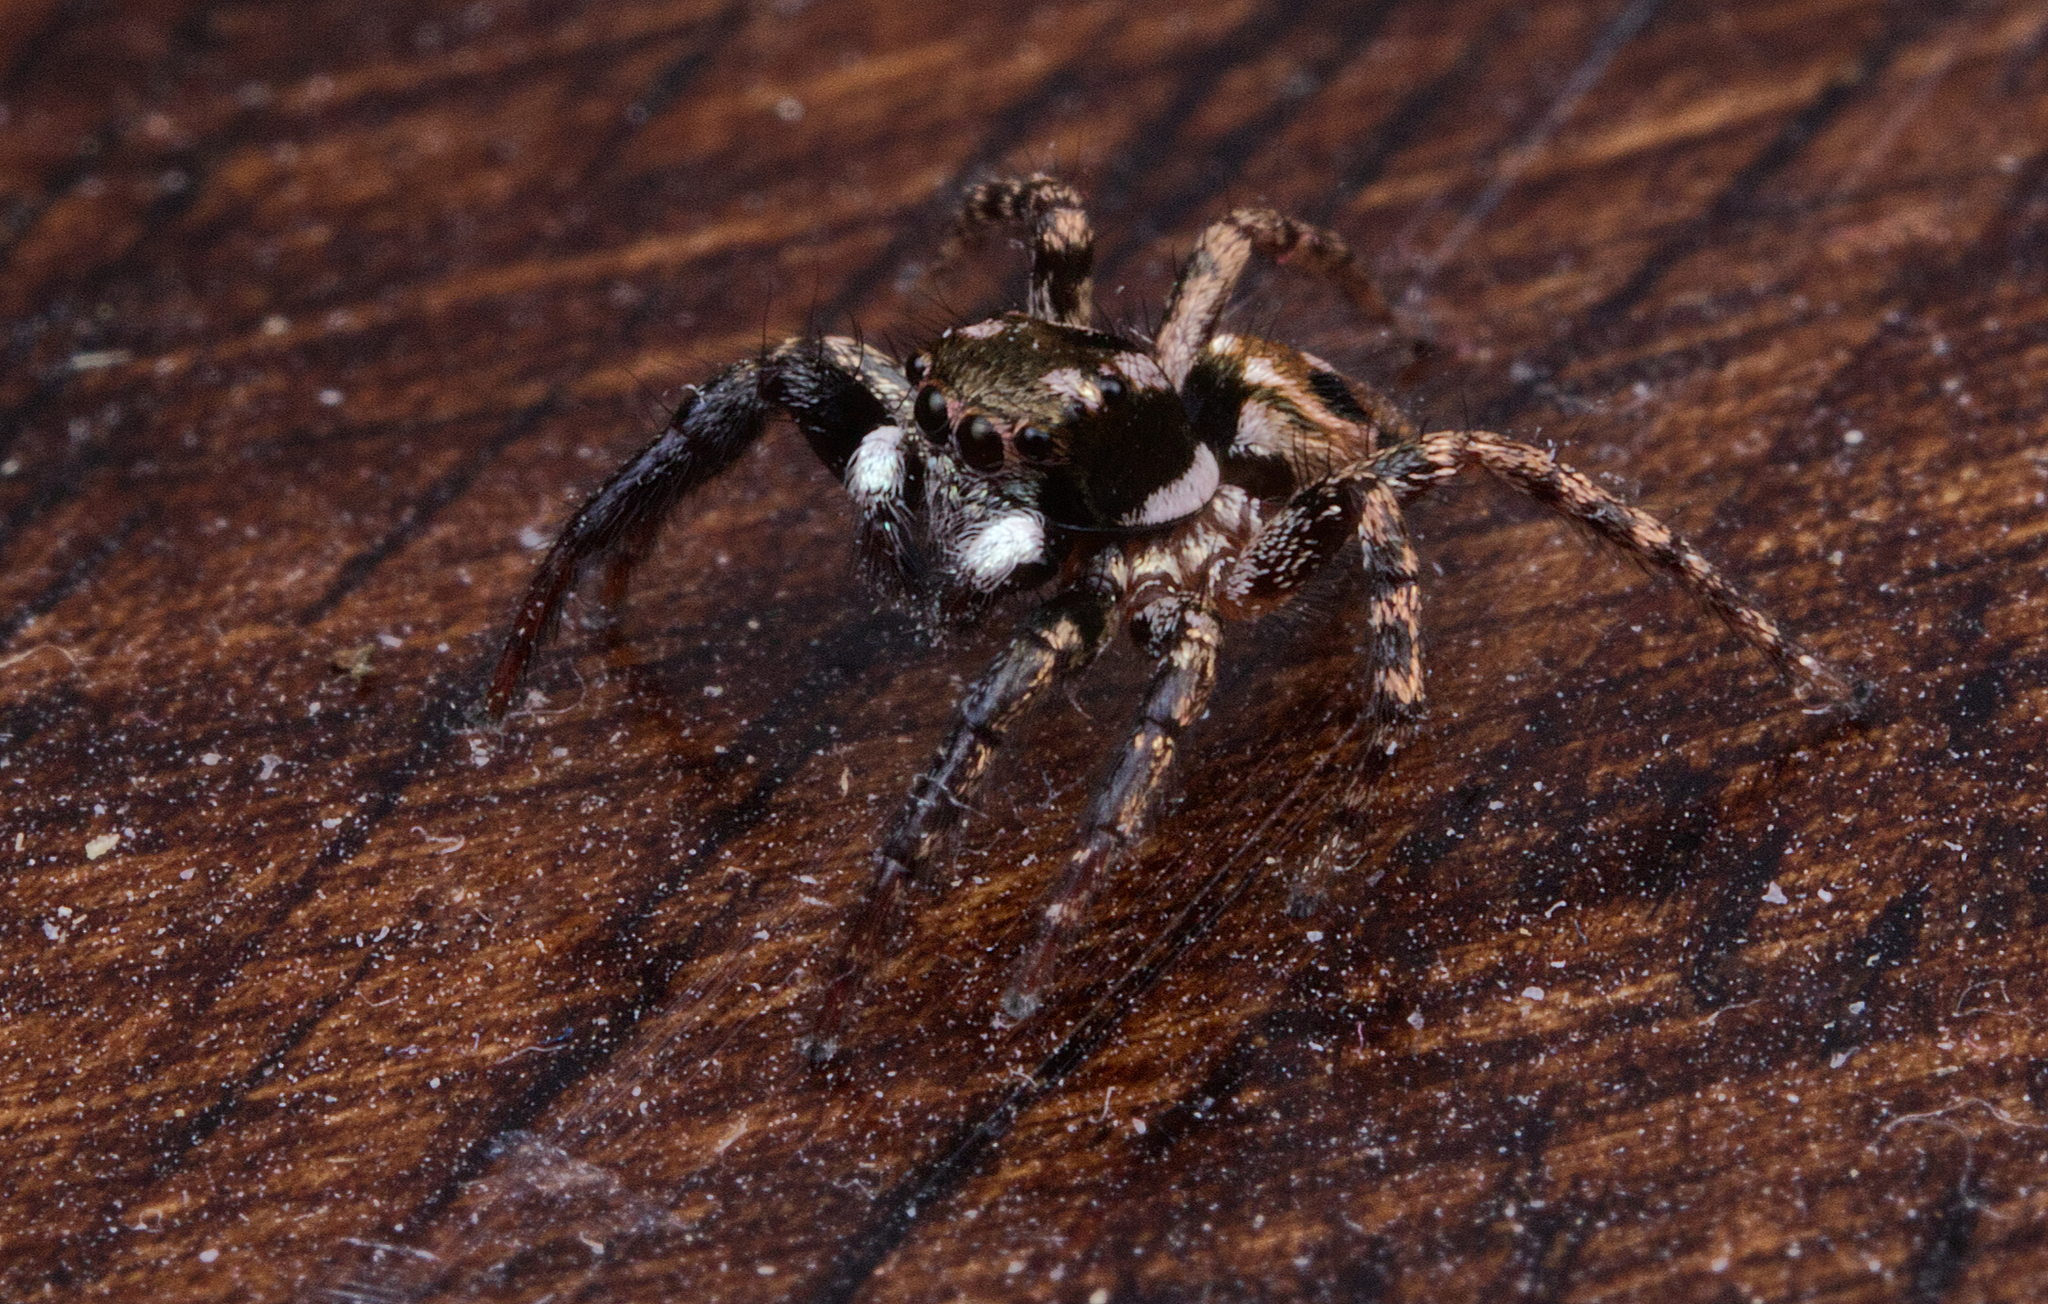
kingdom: Animalia
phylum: Arthropoda
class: Arachnida
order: Araneae
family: Salticidae
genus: Anasaitis
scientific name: Anasaitis canosa
